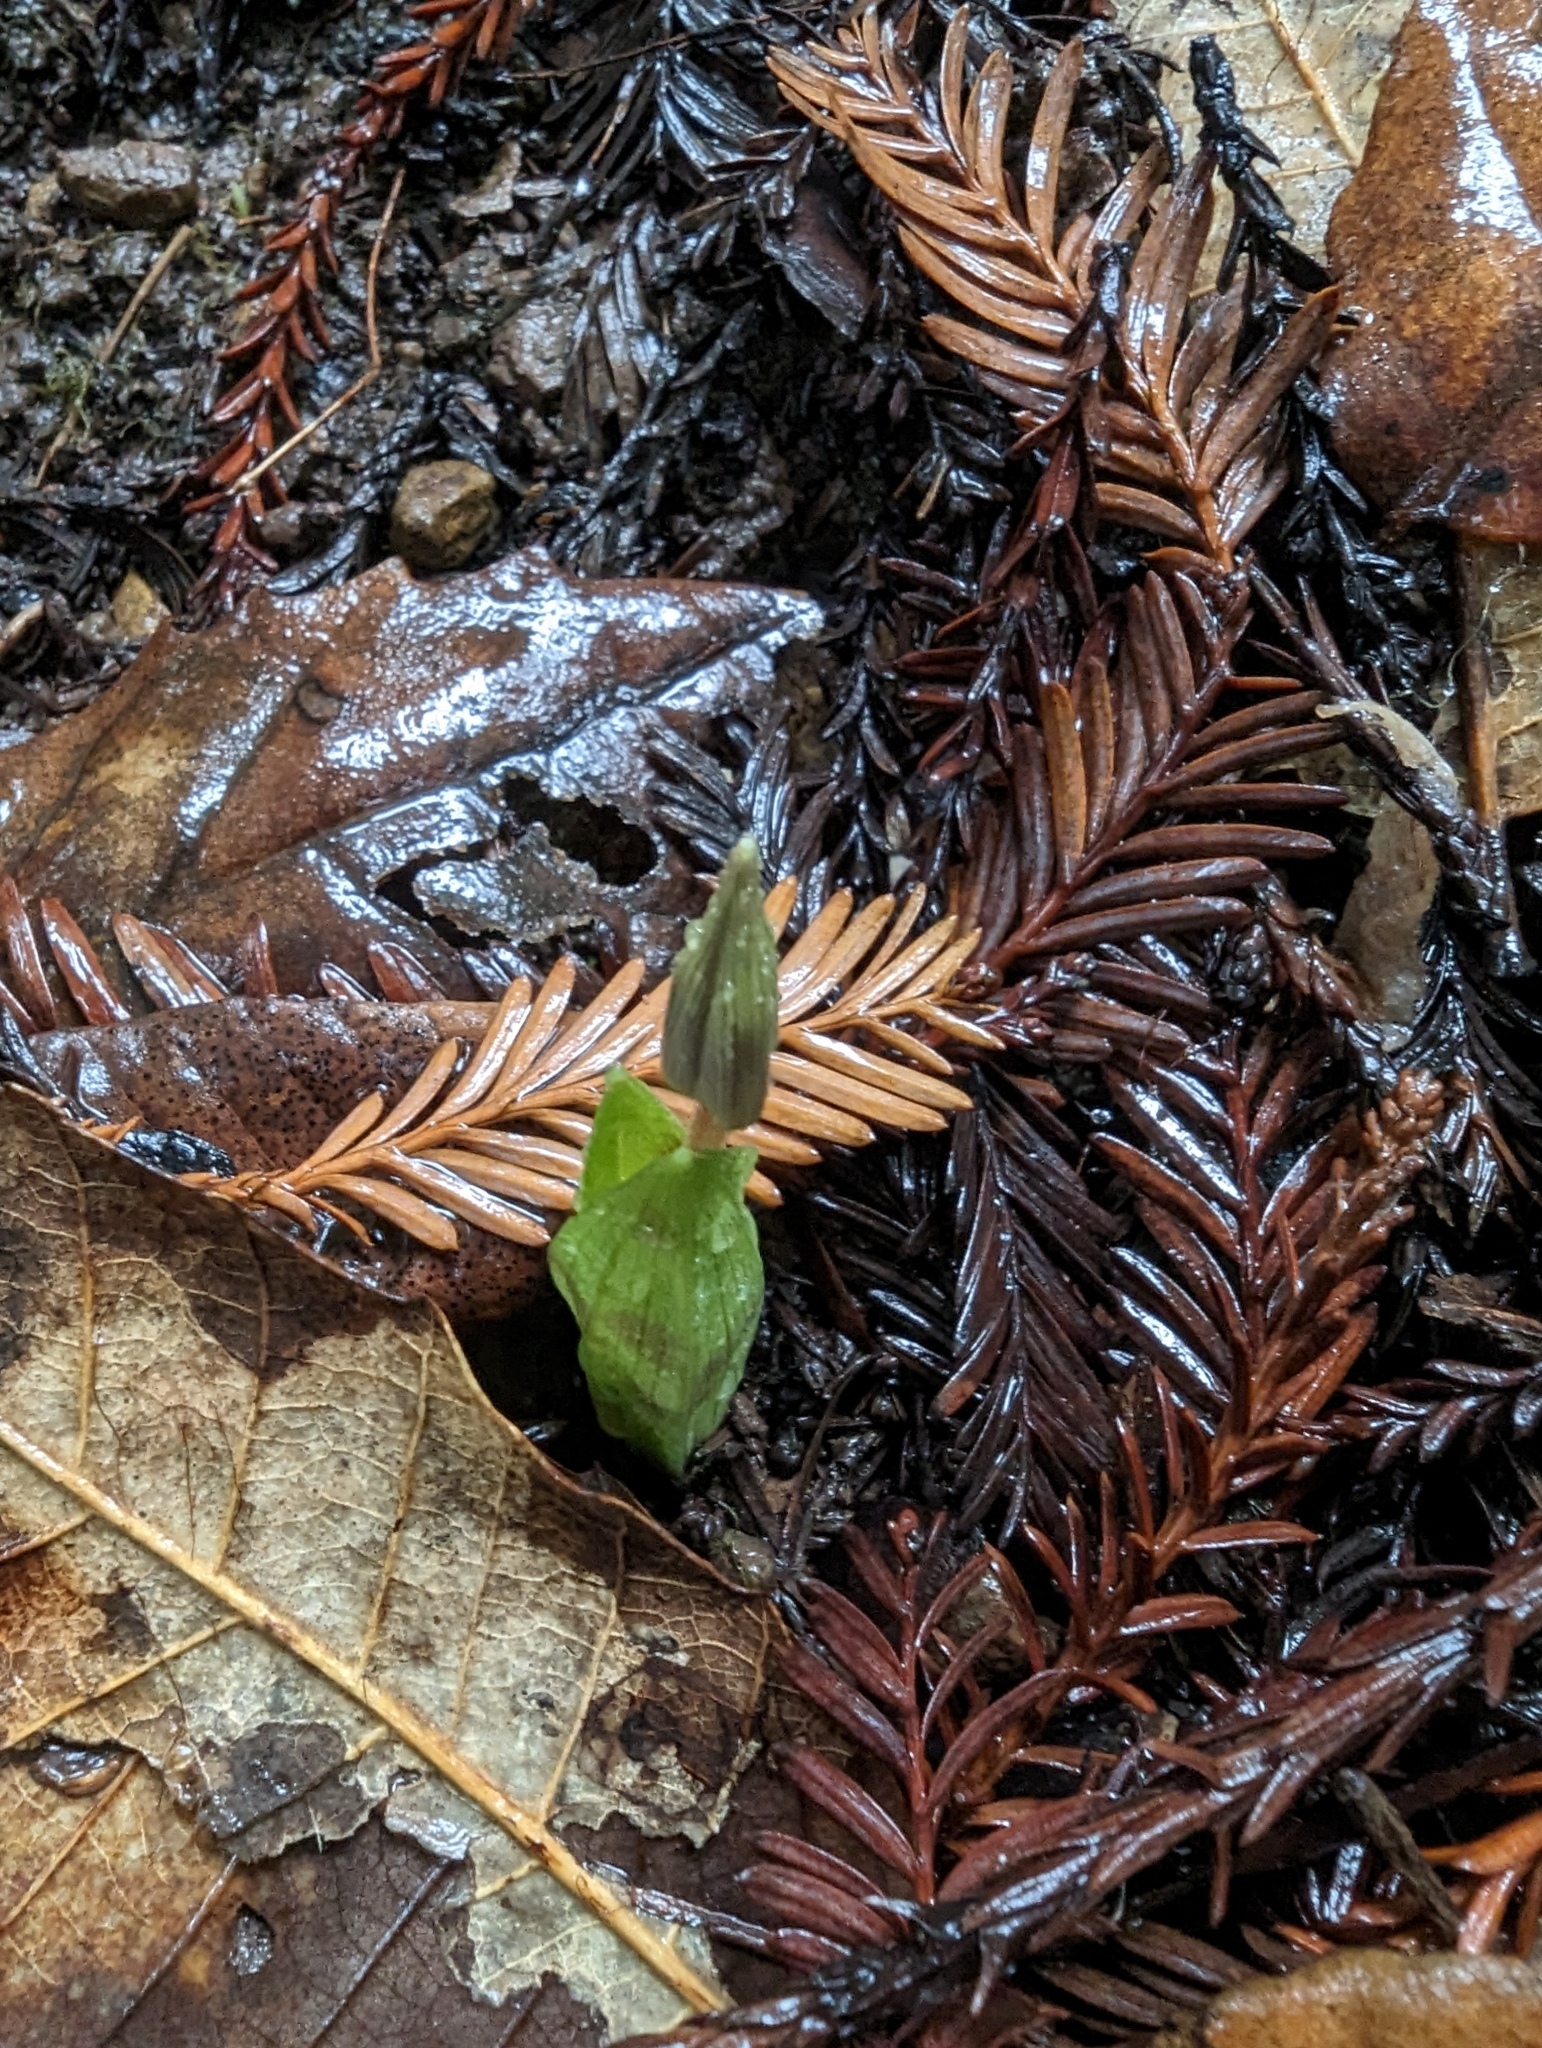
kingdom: Plantae
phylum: Tracheophyta
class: Liliopsida
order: Liliales
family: Liliaceae
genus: Scoliopus
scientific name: Scoliopus bigelovii
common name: Foetid adder's-tongue
